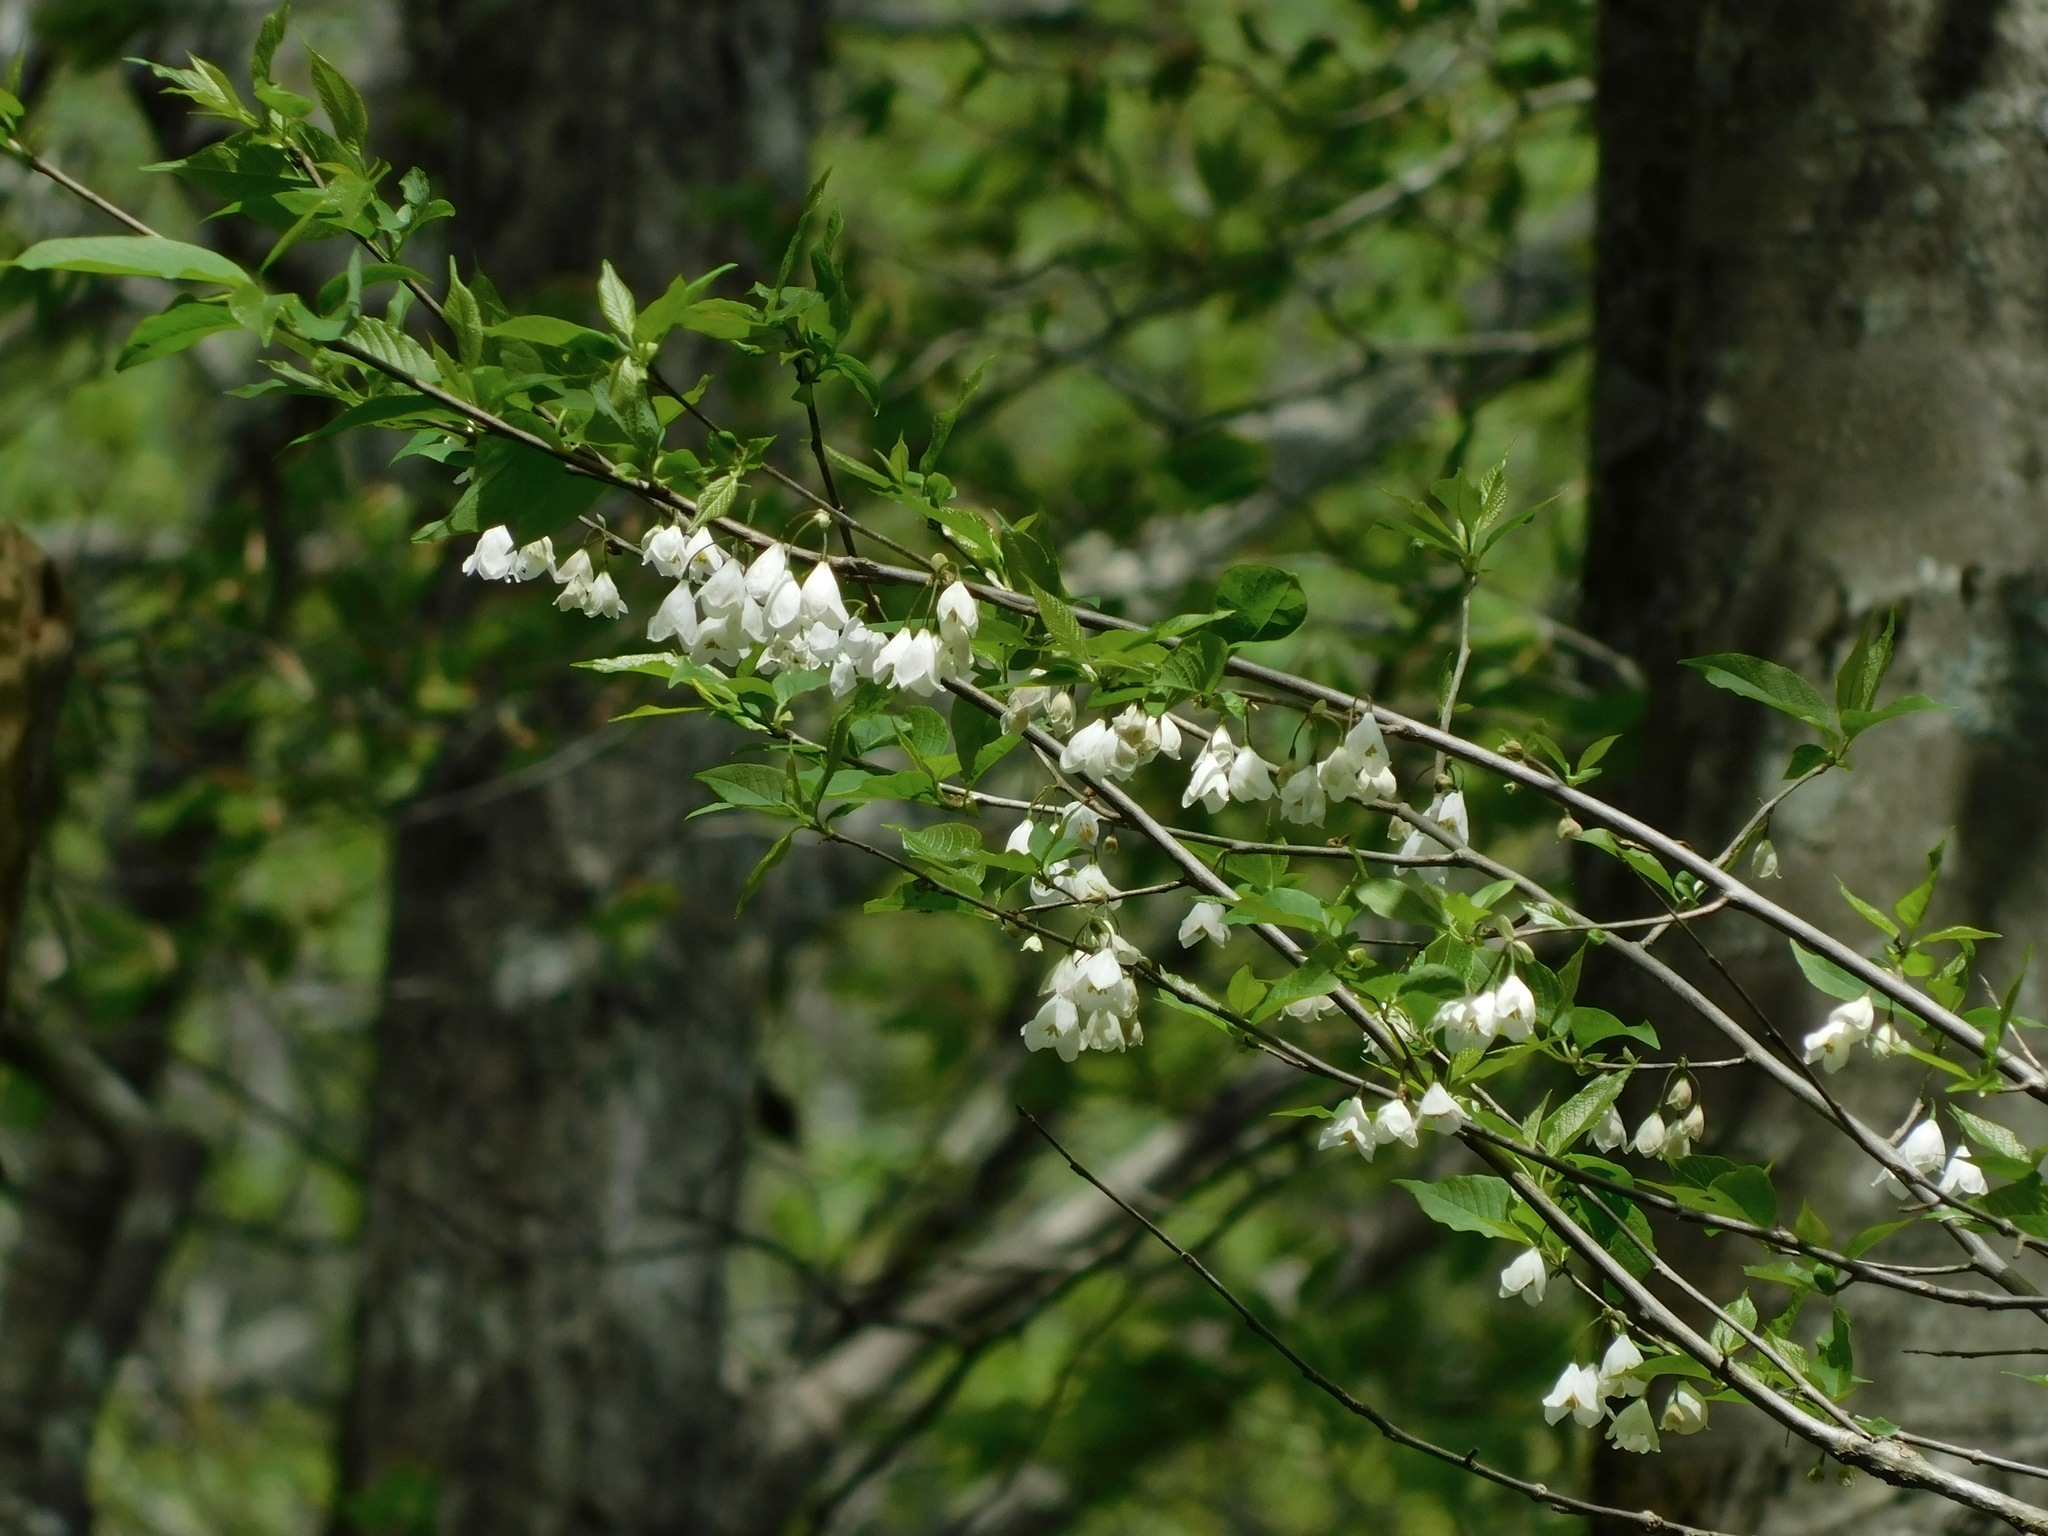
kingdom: Plantae
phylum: Tracheophyta
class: Magnoliopsida
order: Ericales
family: Styracaceae
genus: Halesia
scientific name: Halesia tetraptera
